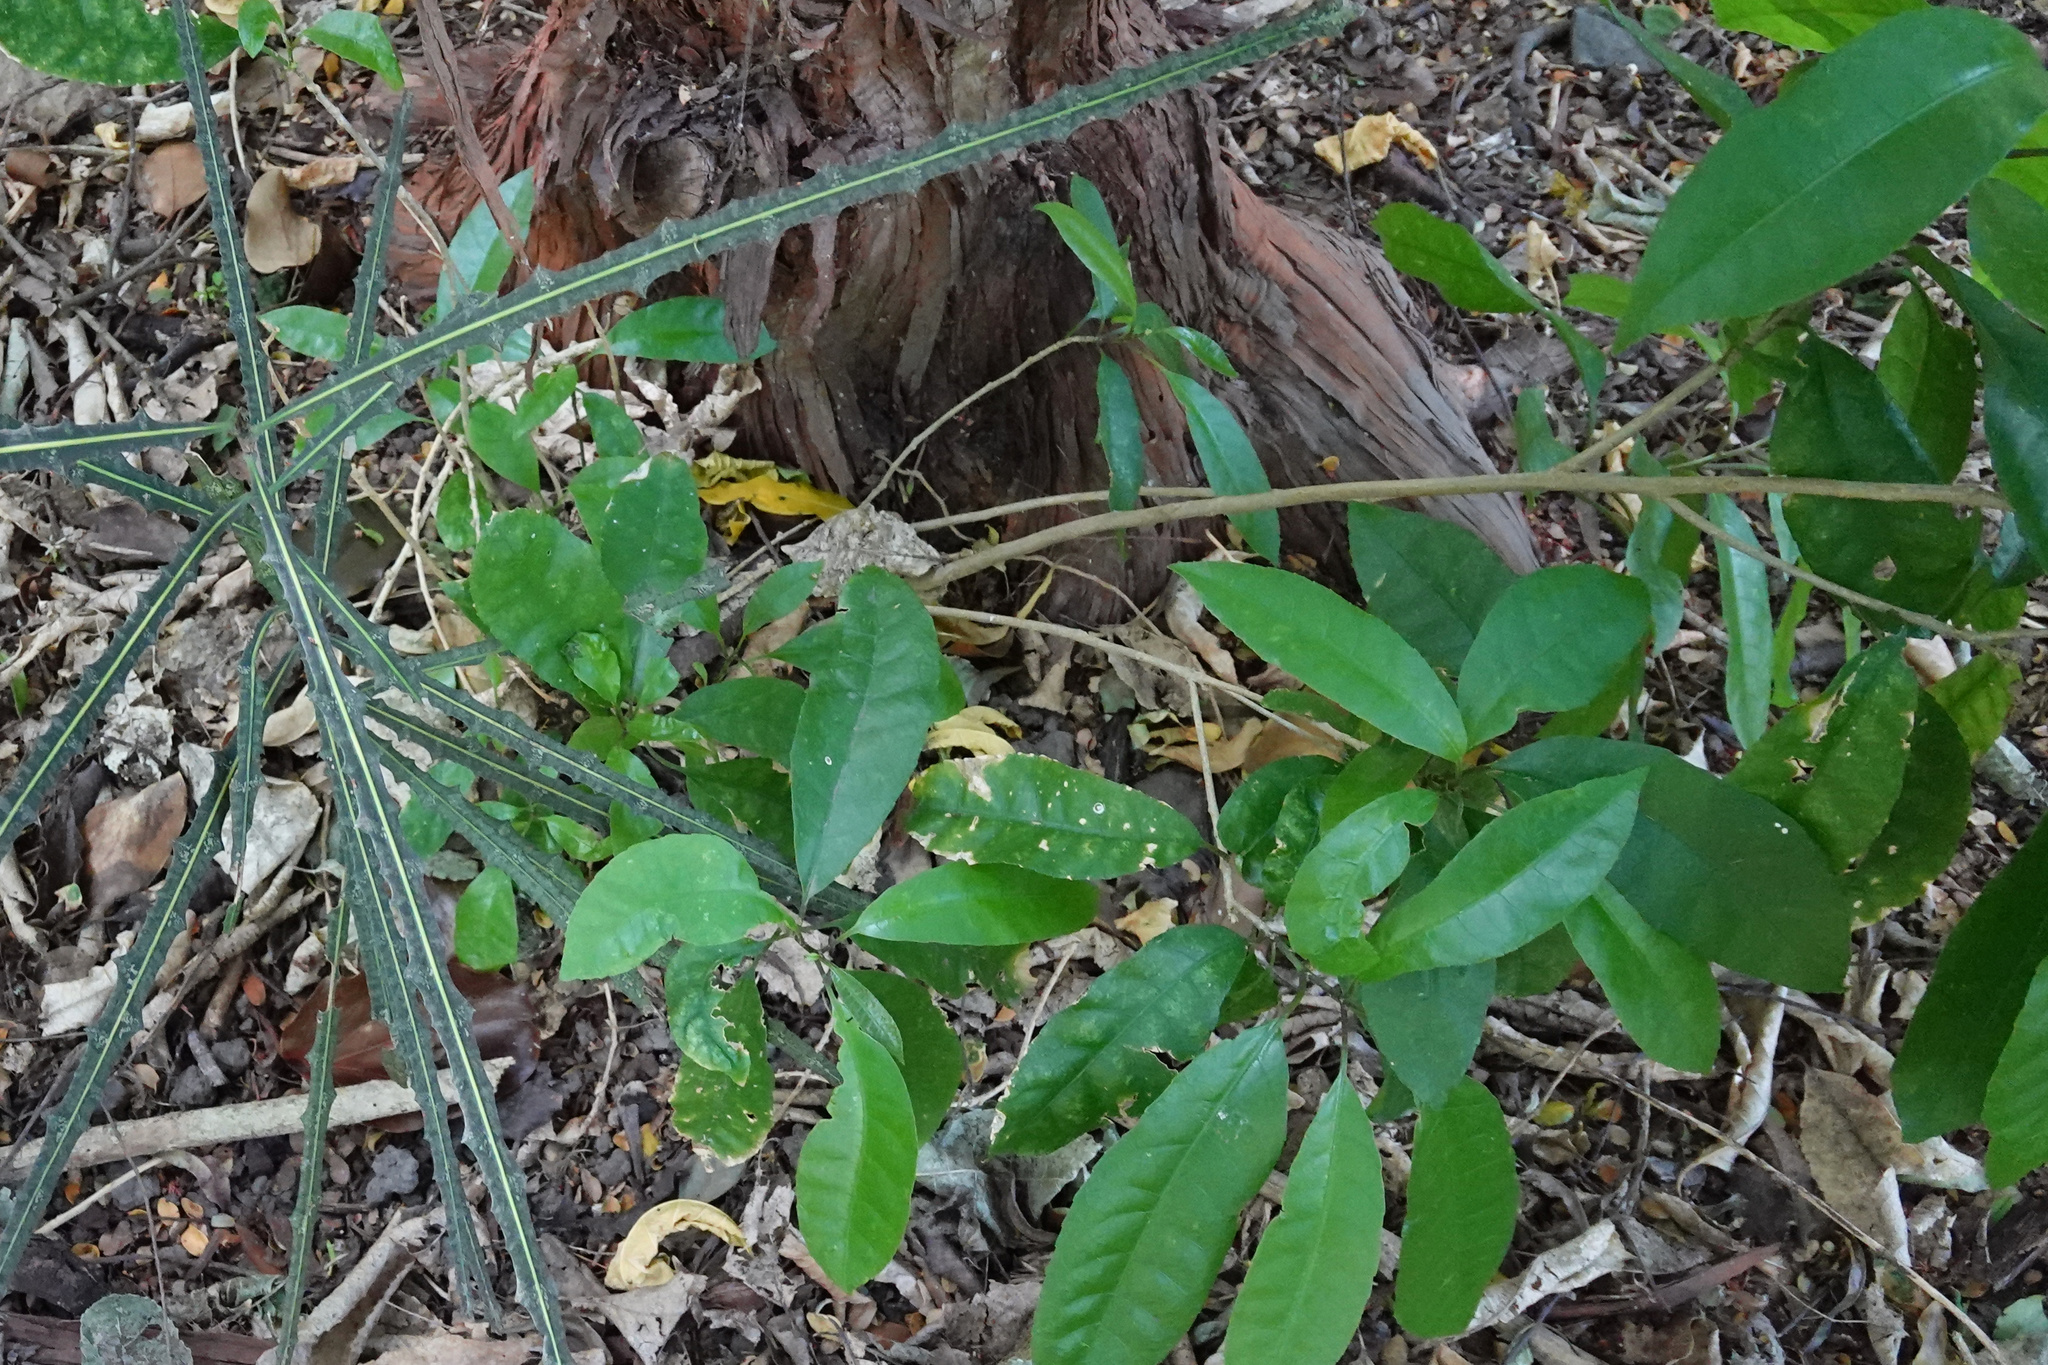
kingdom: Plantae
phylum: Tracheophyta
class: Magnoliopsida
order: Malpighiales
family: Violaceae
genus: Melicytus
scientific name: Melicytus ramiflorus
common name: Mahoe
